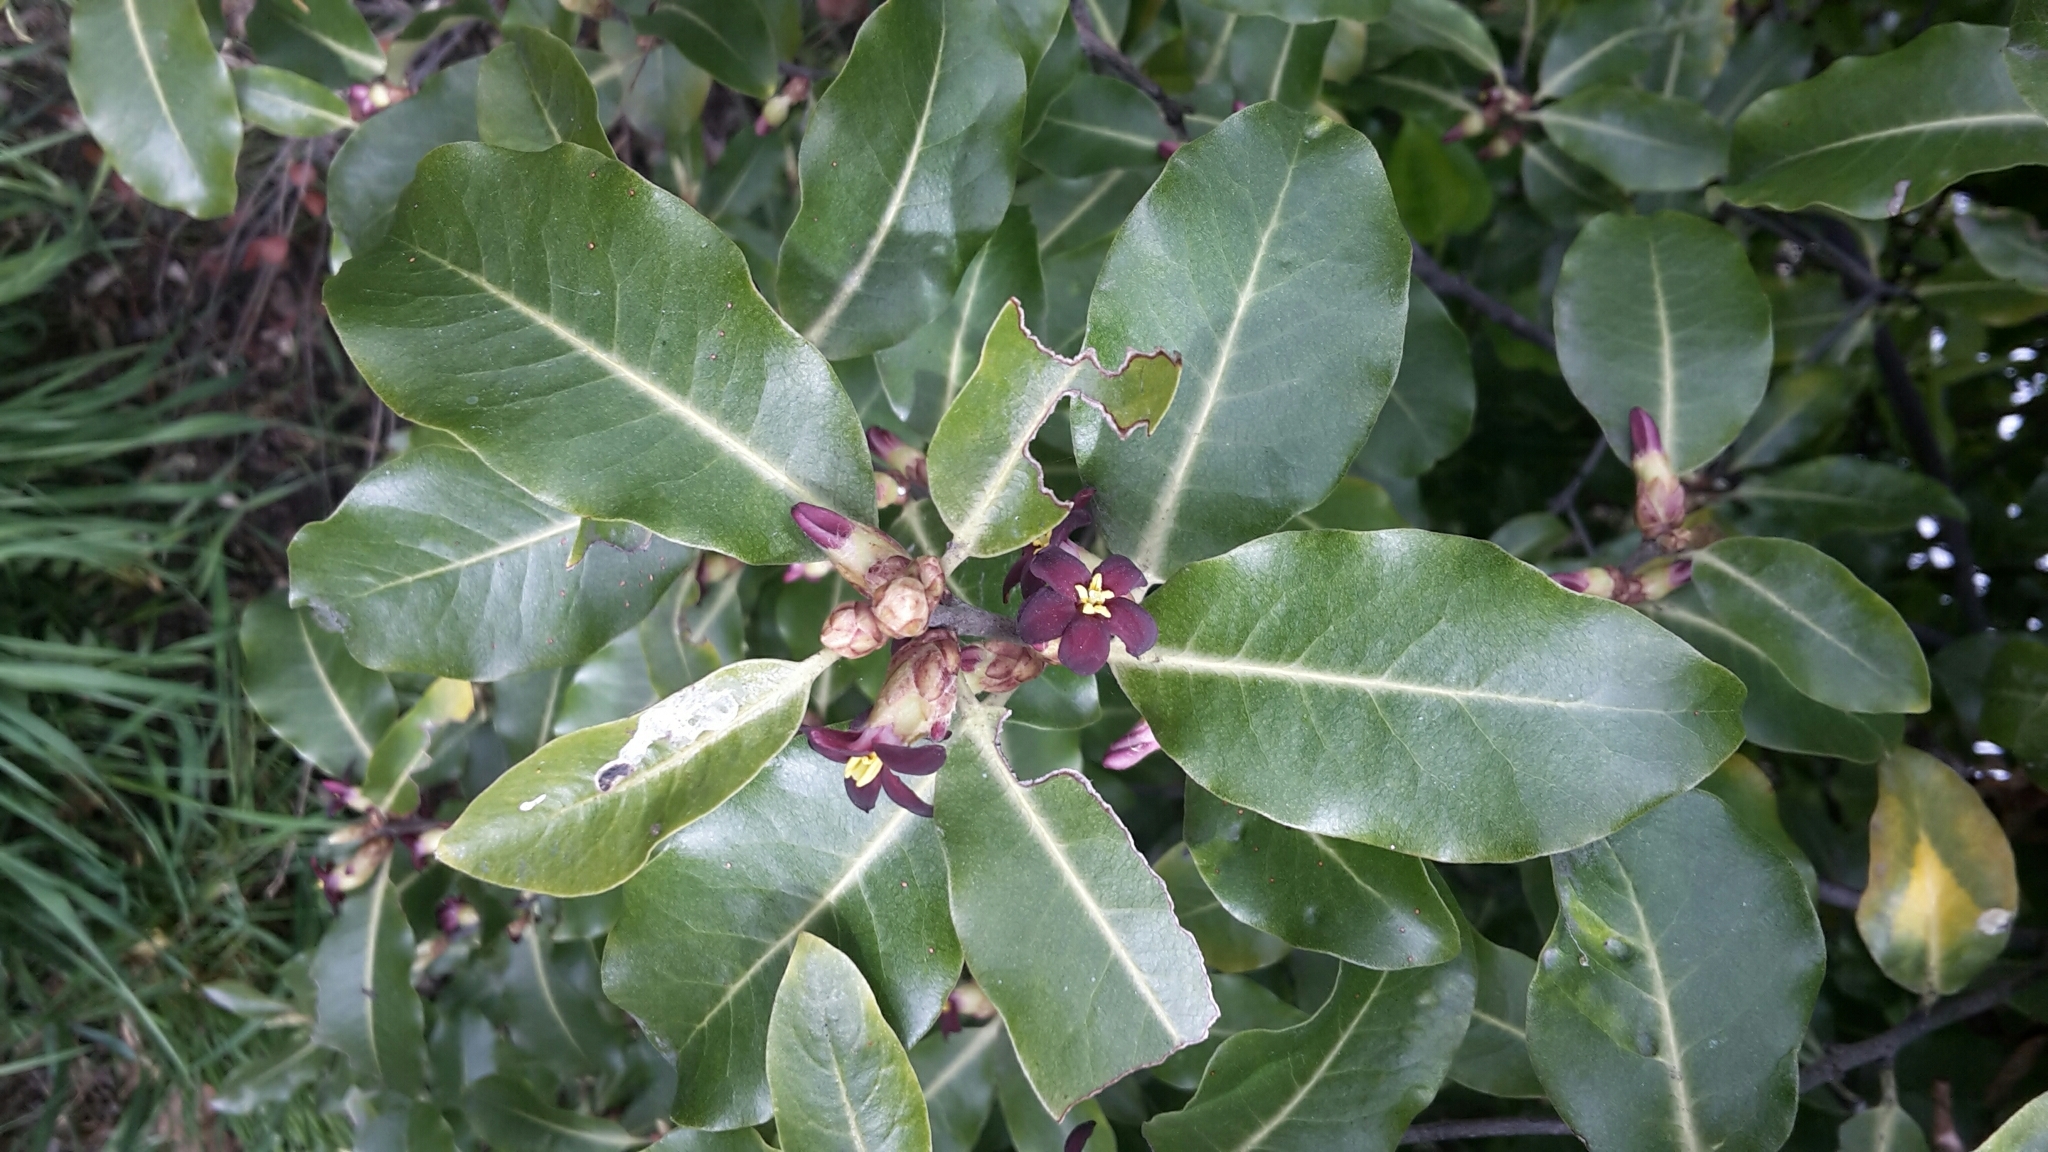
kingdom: Plantae
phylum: Tracheophyta
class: Magnoliopsida
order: Apiales
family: Pittosporaceae
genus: Pittosporum
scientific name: Pittosporum tenuifolium
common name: Kohuhu
